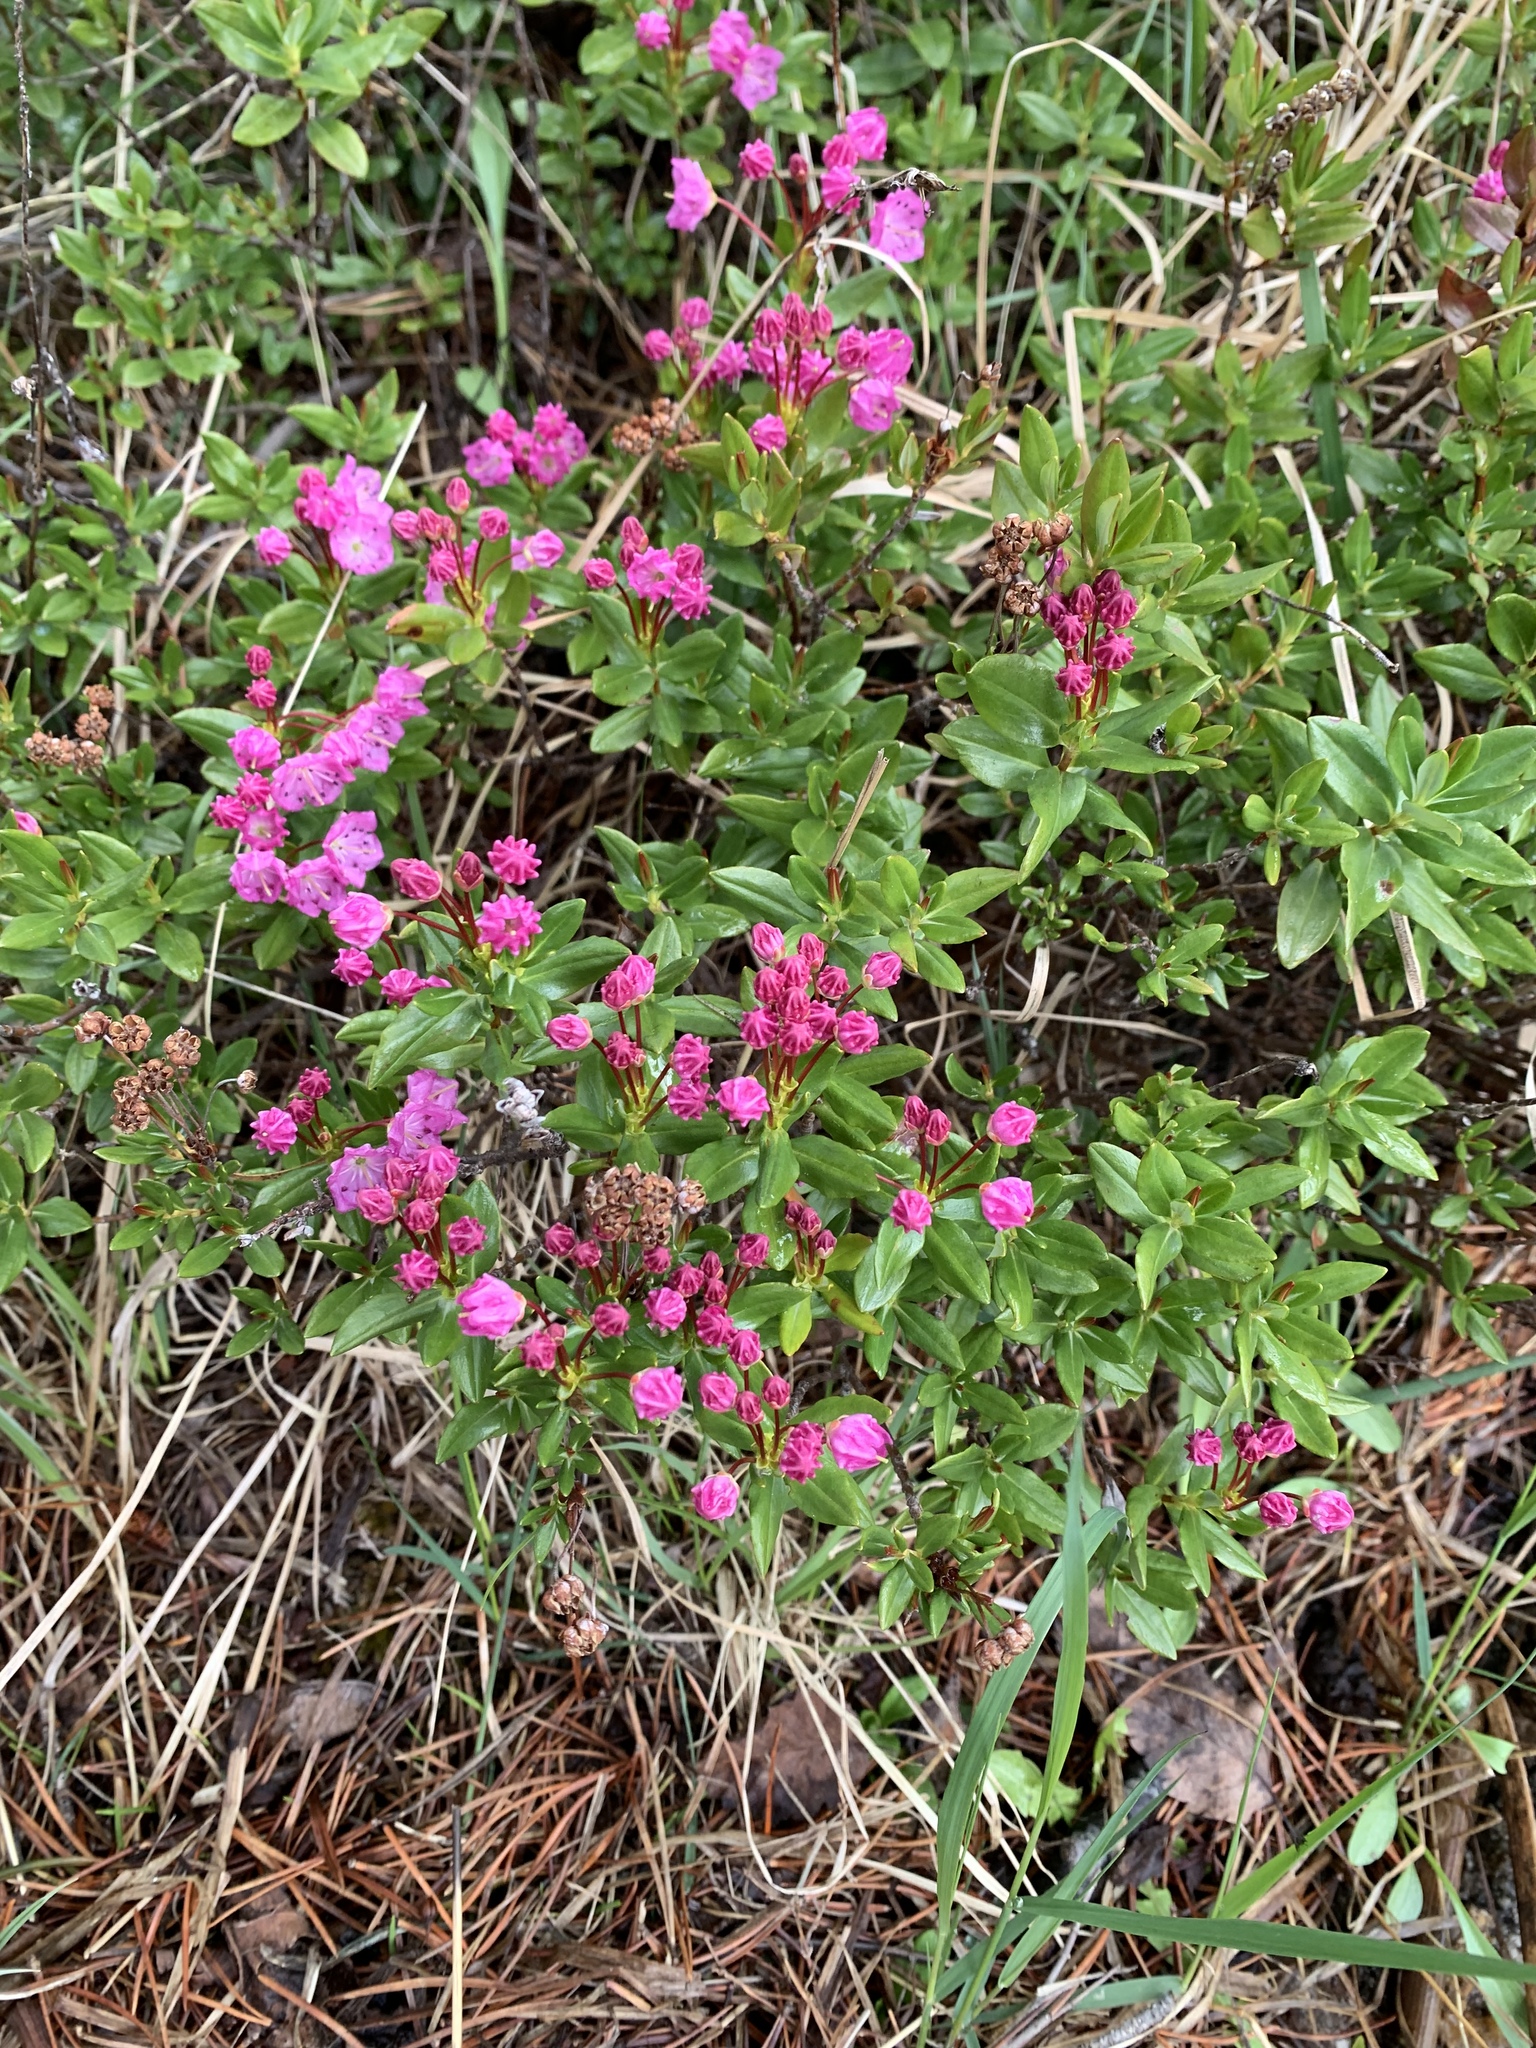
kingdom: Plantae
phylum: Tracheophyta
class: Magnoliopsida
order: Ericales
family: Ericaceae
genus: Kalmia
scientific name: Kalmia microphylla
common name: Alpine bog laurel
